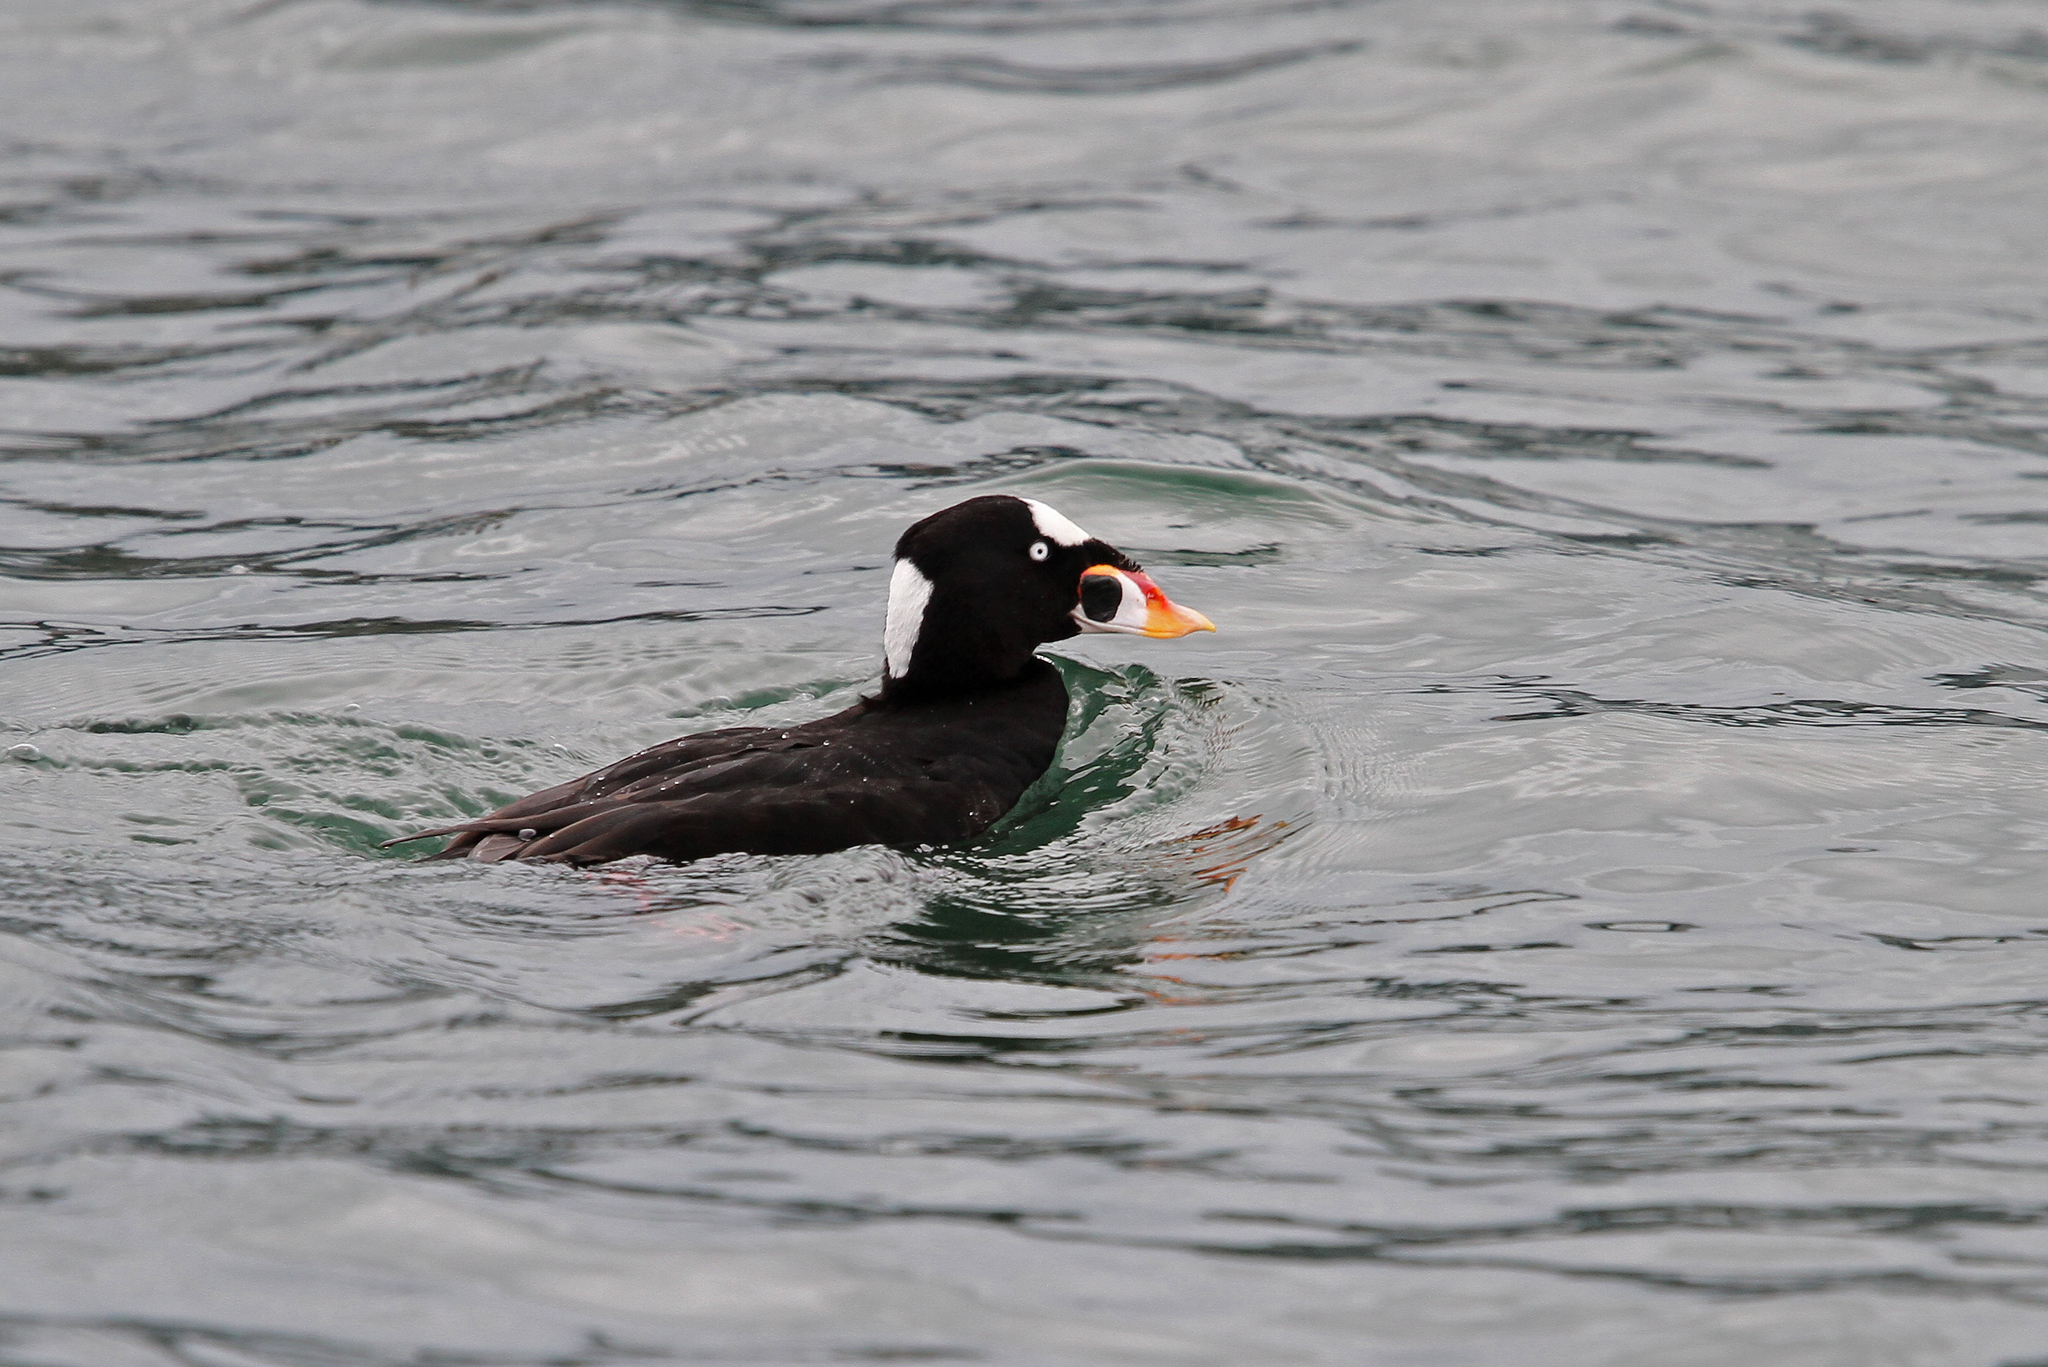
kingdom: Animalia
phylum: Chordata
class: Aves
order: Anseriformes
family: Anatidae
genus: Melanitta
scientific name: Melanitta perspicillata
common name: Surf scoter
